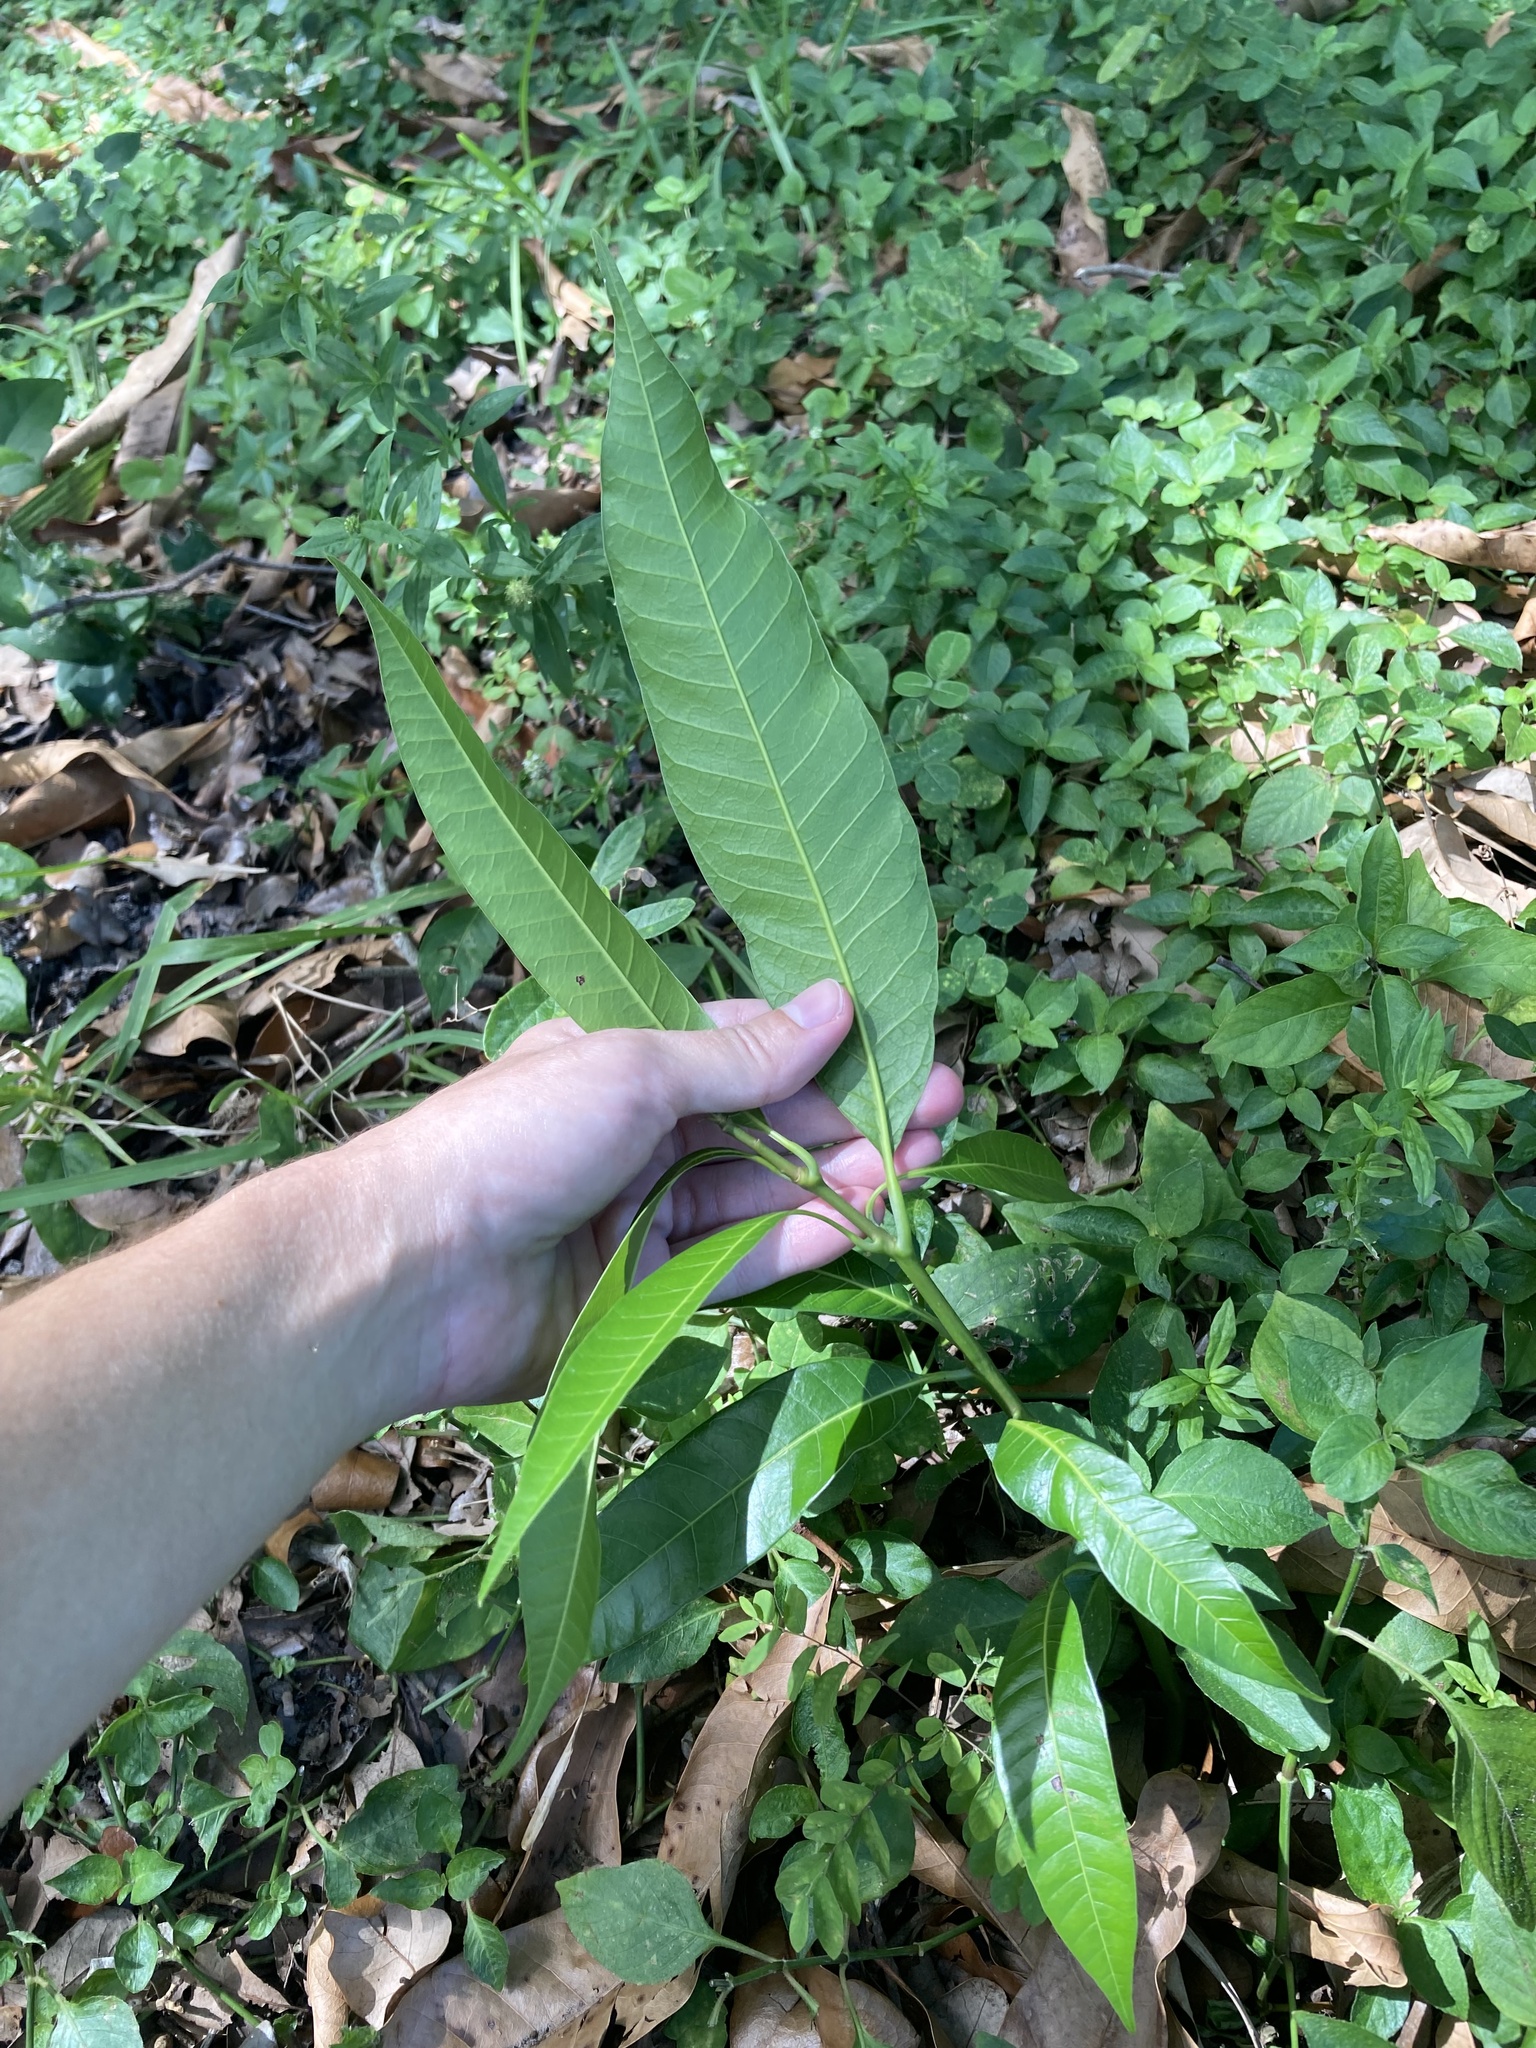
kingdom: Plantae
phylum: Tracheophyta
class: Magnoliopsida
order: Sapindales
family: Anacardiaceae
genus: Mangifera
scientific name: Mangifera indica
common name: Mango
